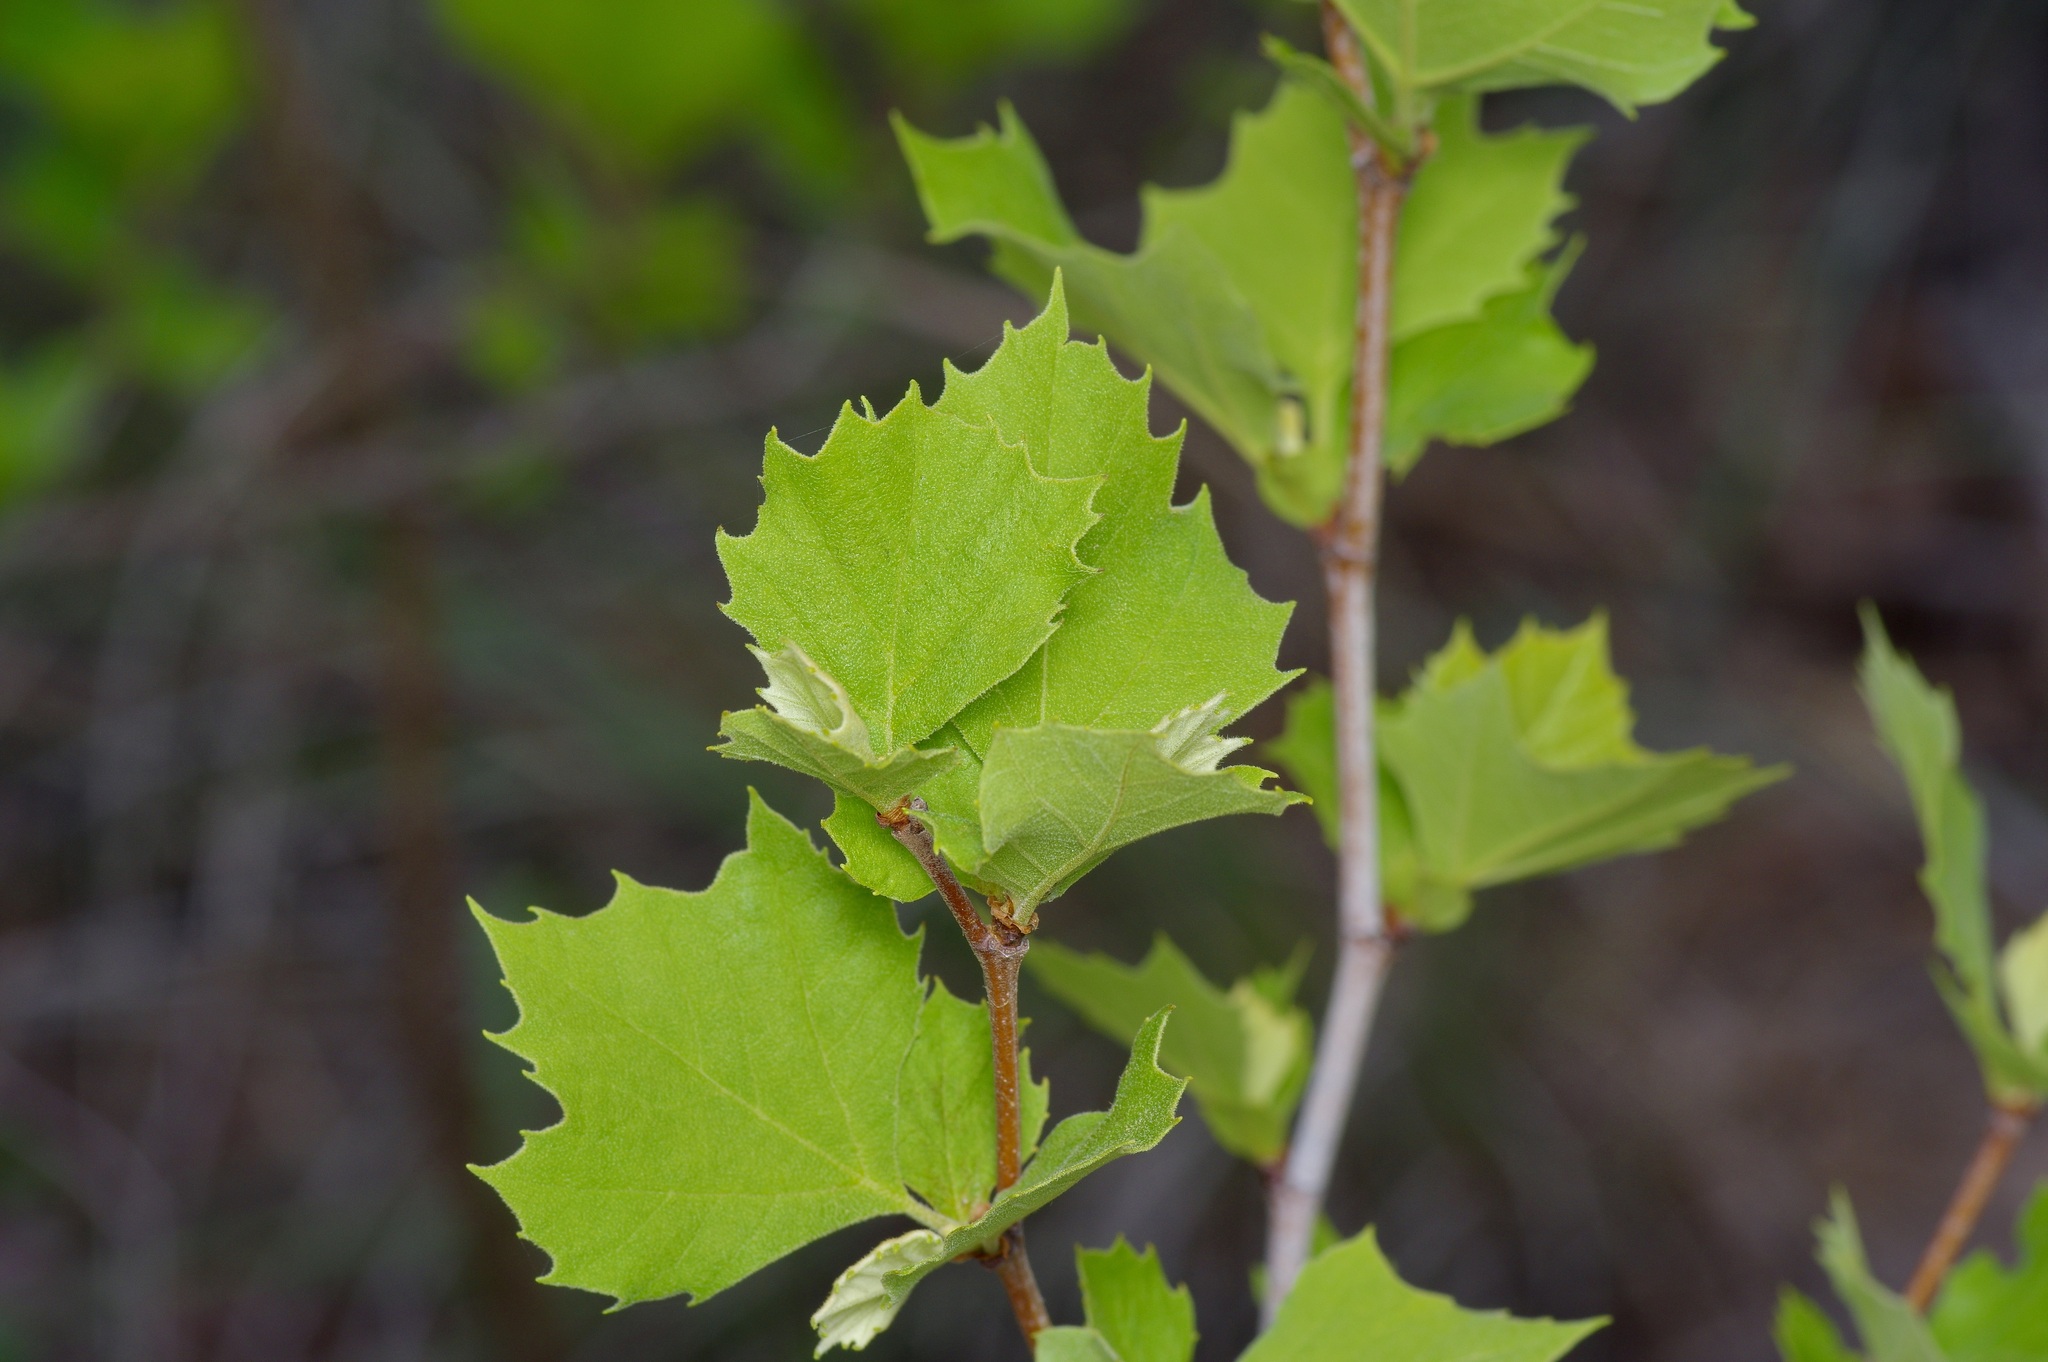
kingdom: Plantae
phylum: Tracheophyta
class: Magnoliopsida
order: Proteales
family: Platanaceae
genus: Platanus
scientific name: Platanus occidentalis
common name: American sycamore
